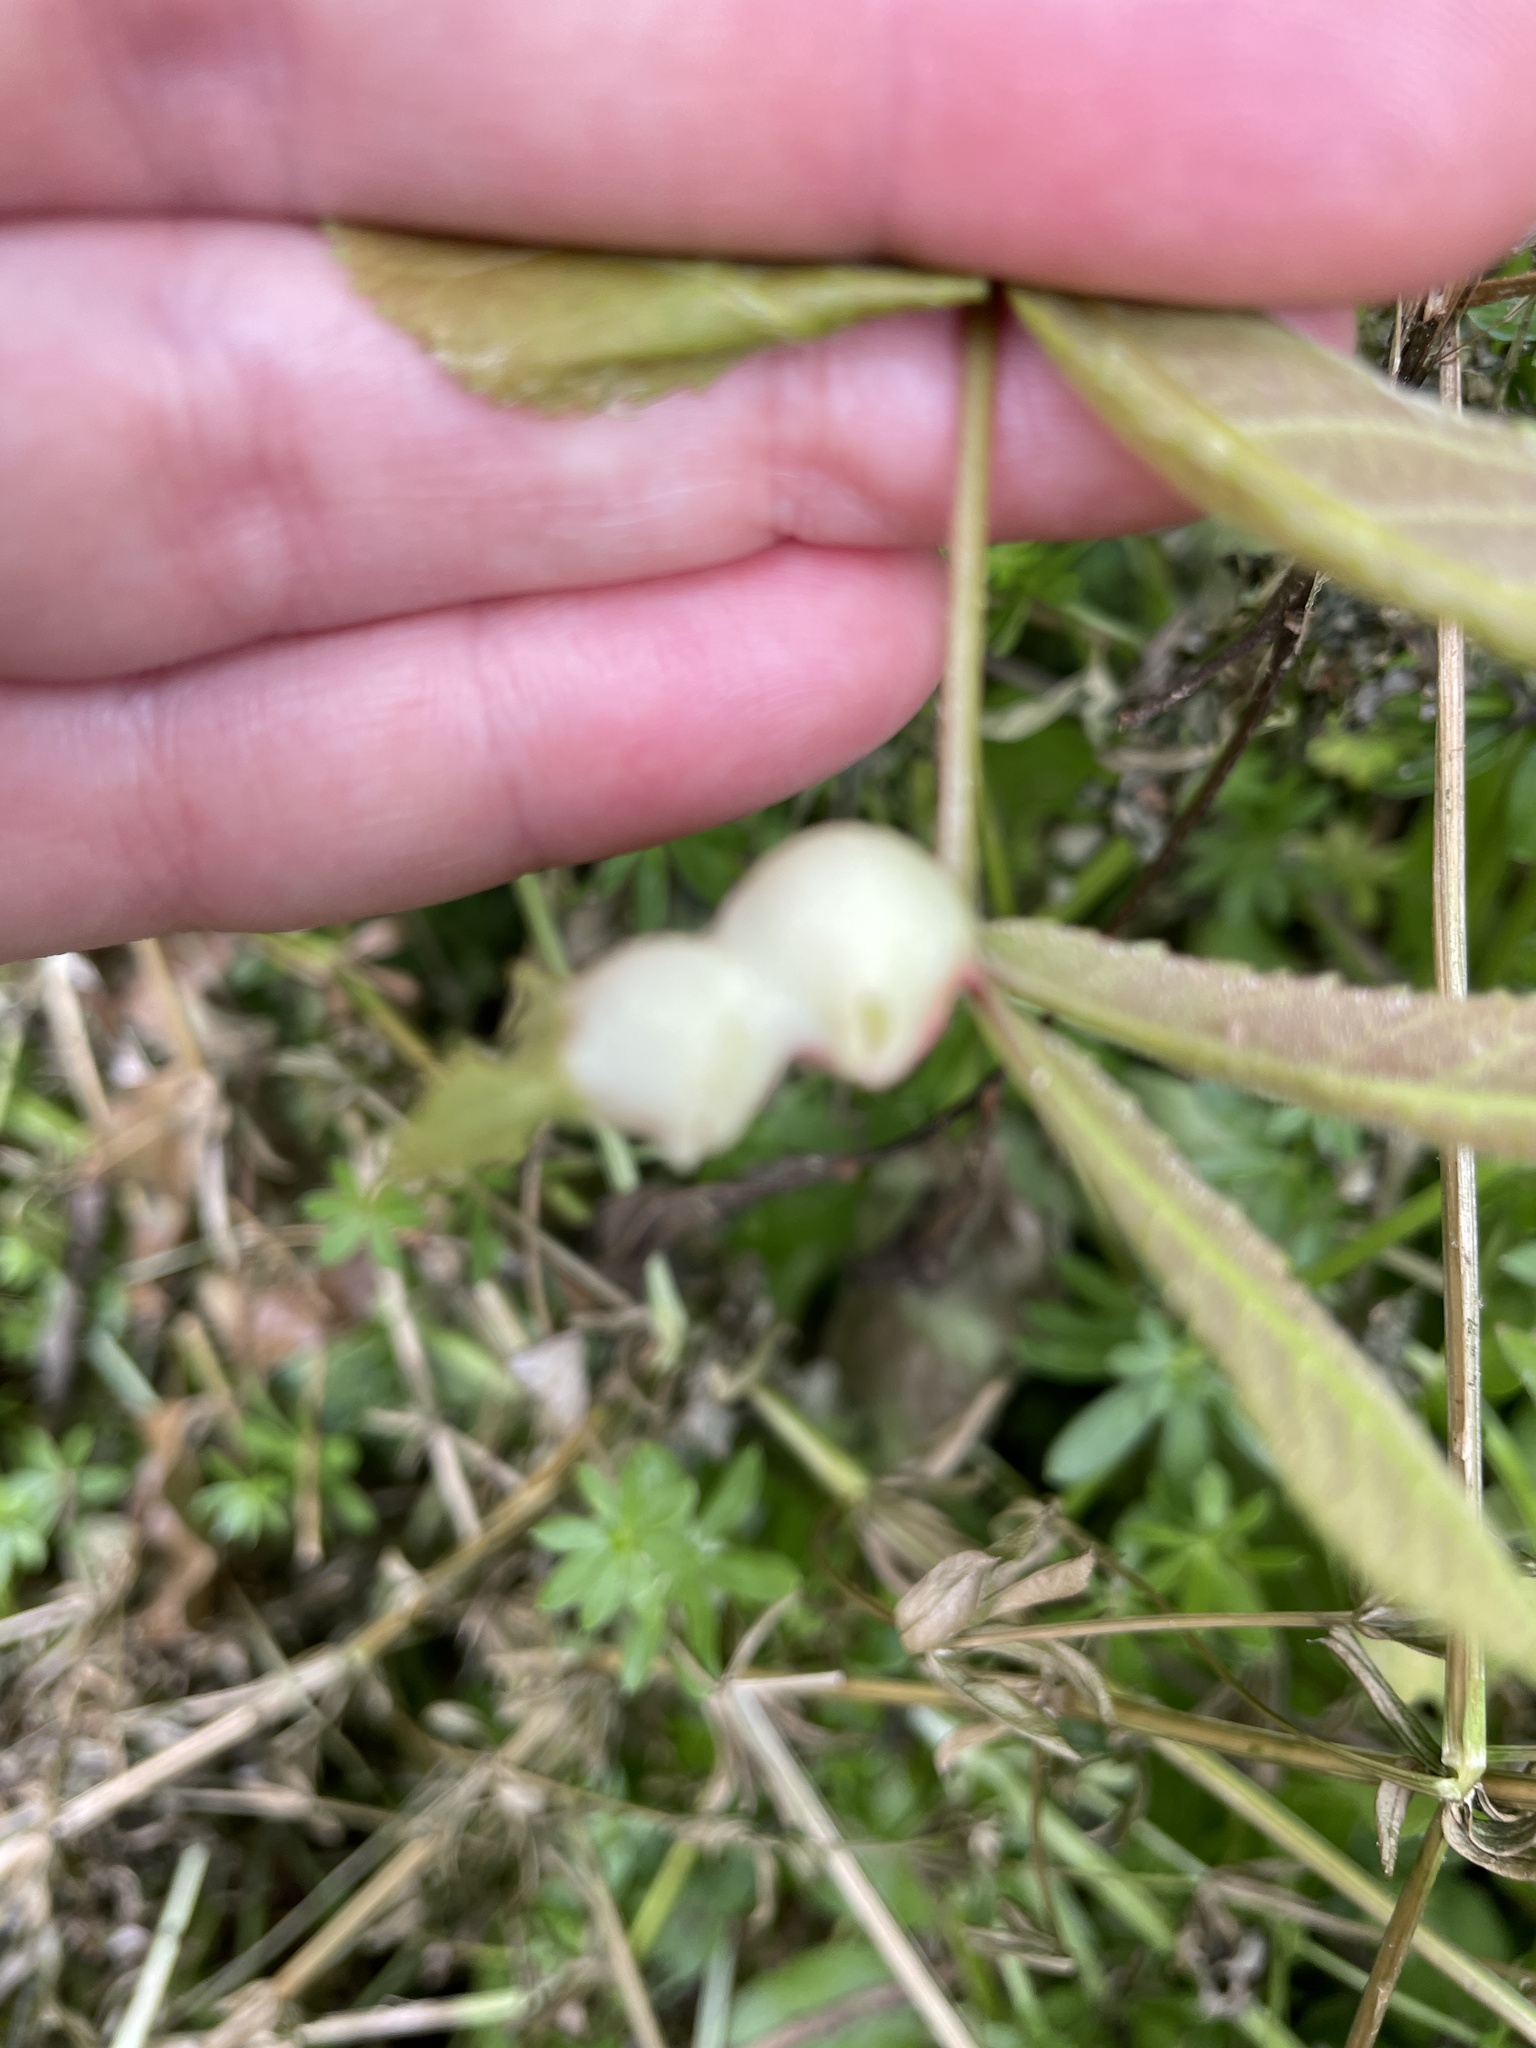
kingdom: Animalia
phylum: Arthropoda
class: Insecta
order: Hemiptera
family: Phylloxeridae
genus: Phylloxera
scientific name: Phylloxera
